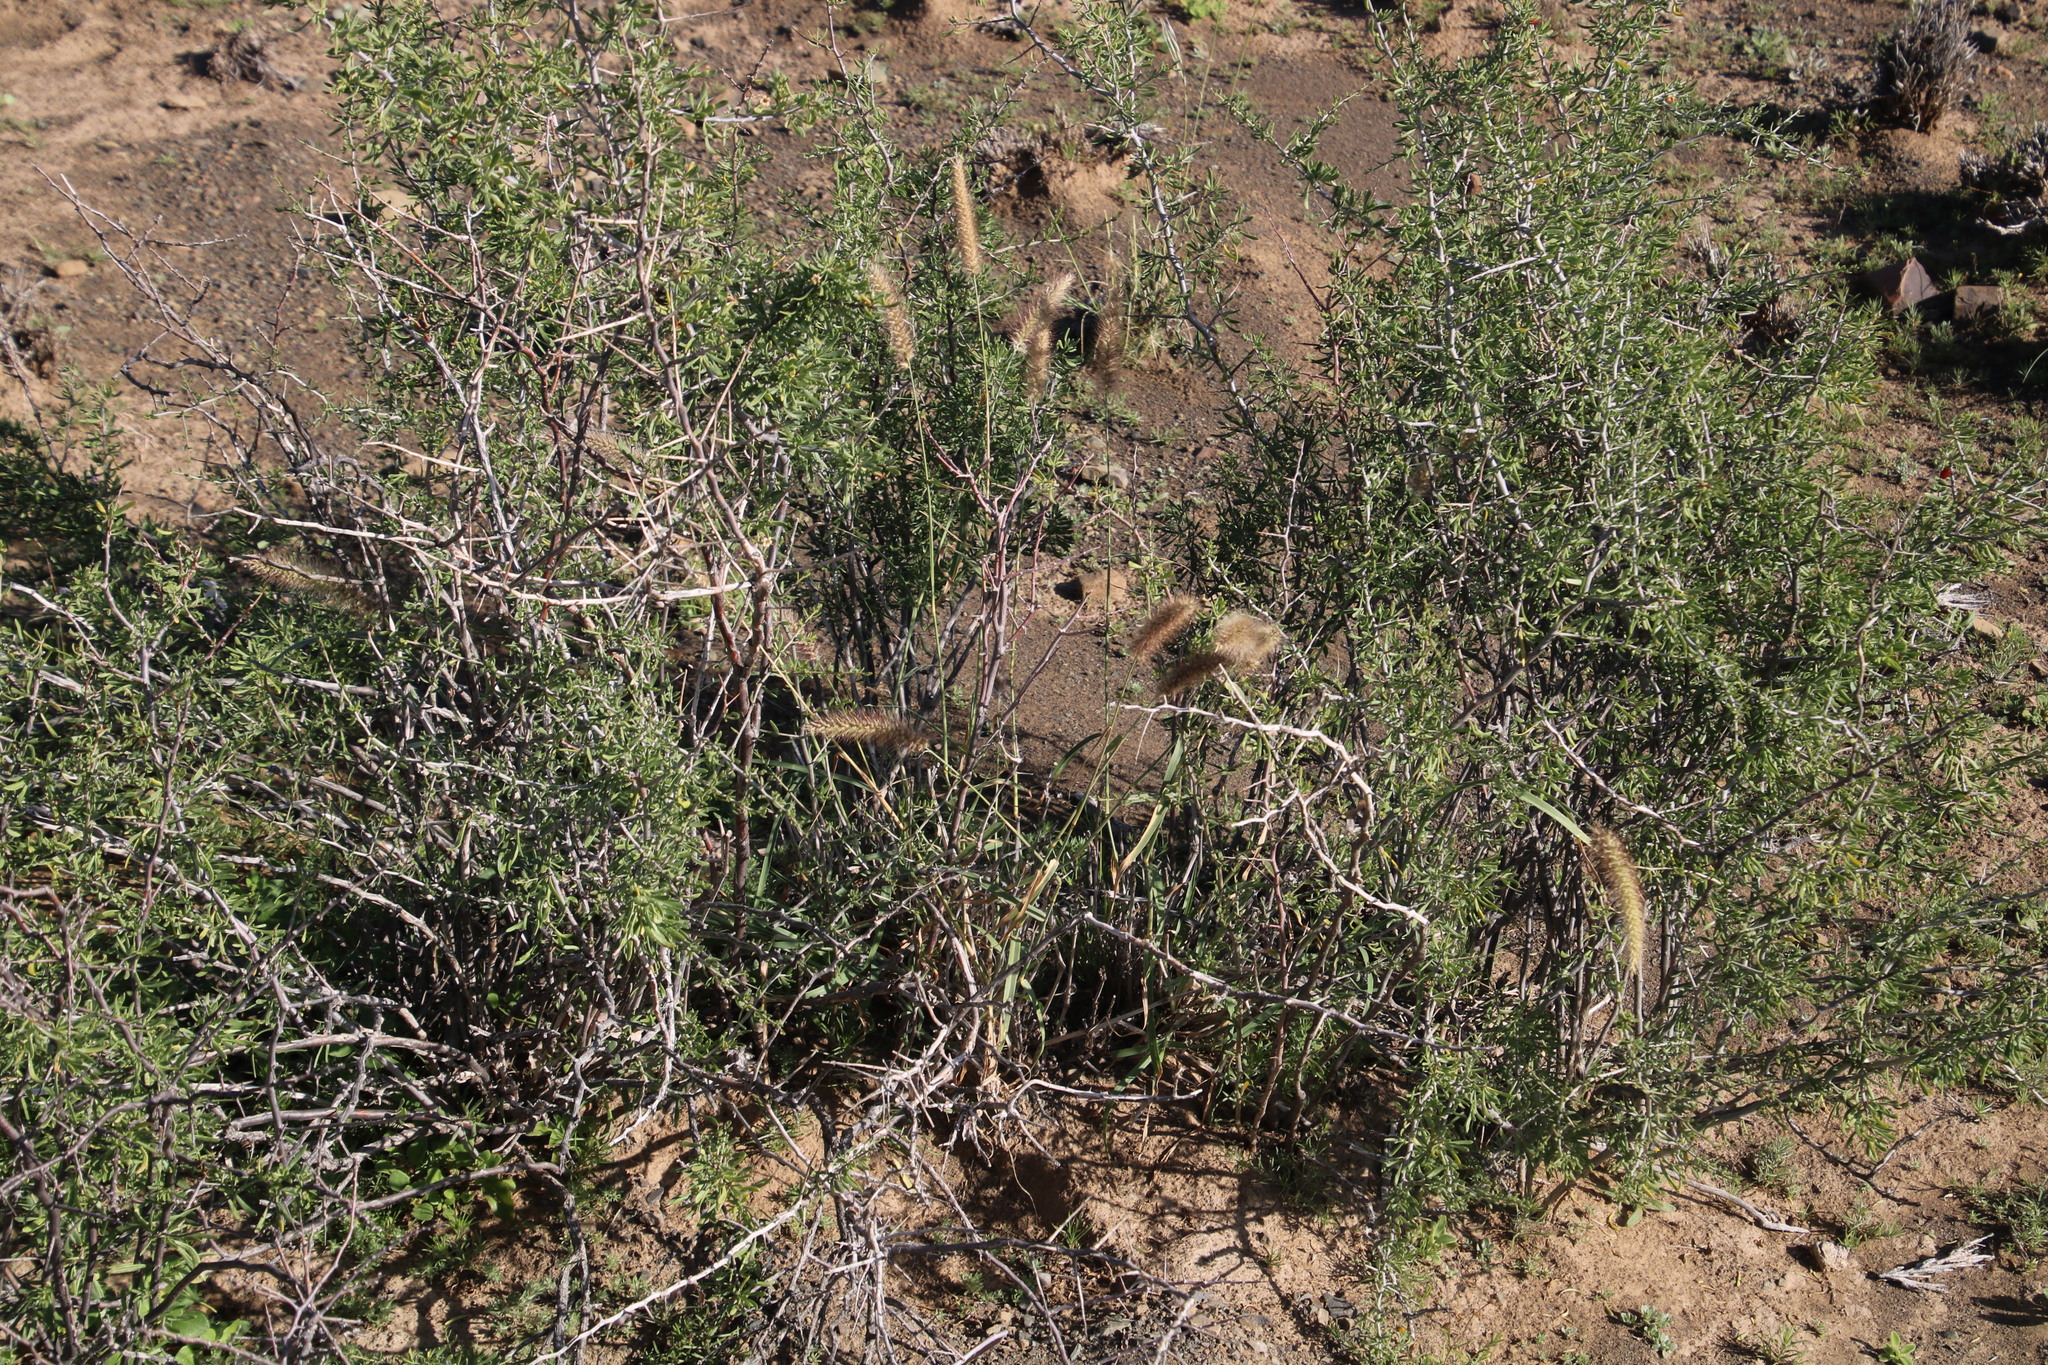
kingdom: Plantae
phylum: Tracheophyta
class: Liliopsida
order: Poales
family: Poaceae
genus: Cenchrus
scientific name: Cenchrus ciliaris
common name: Buffelgrass
